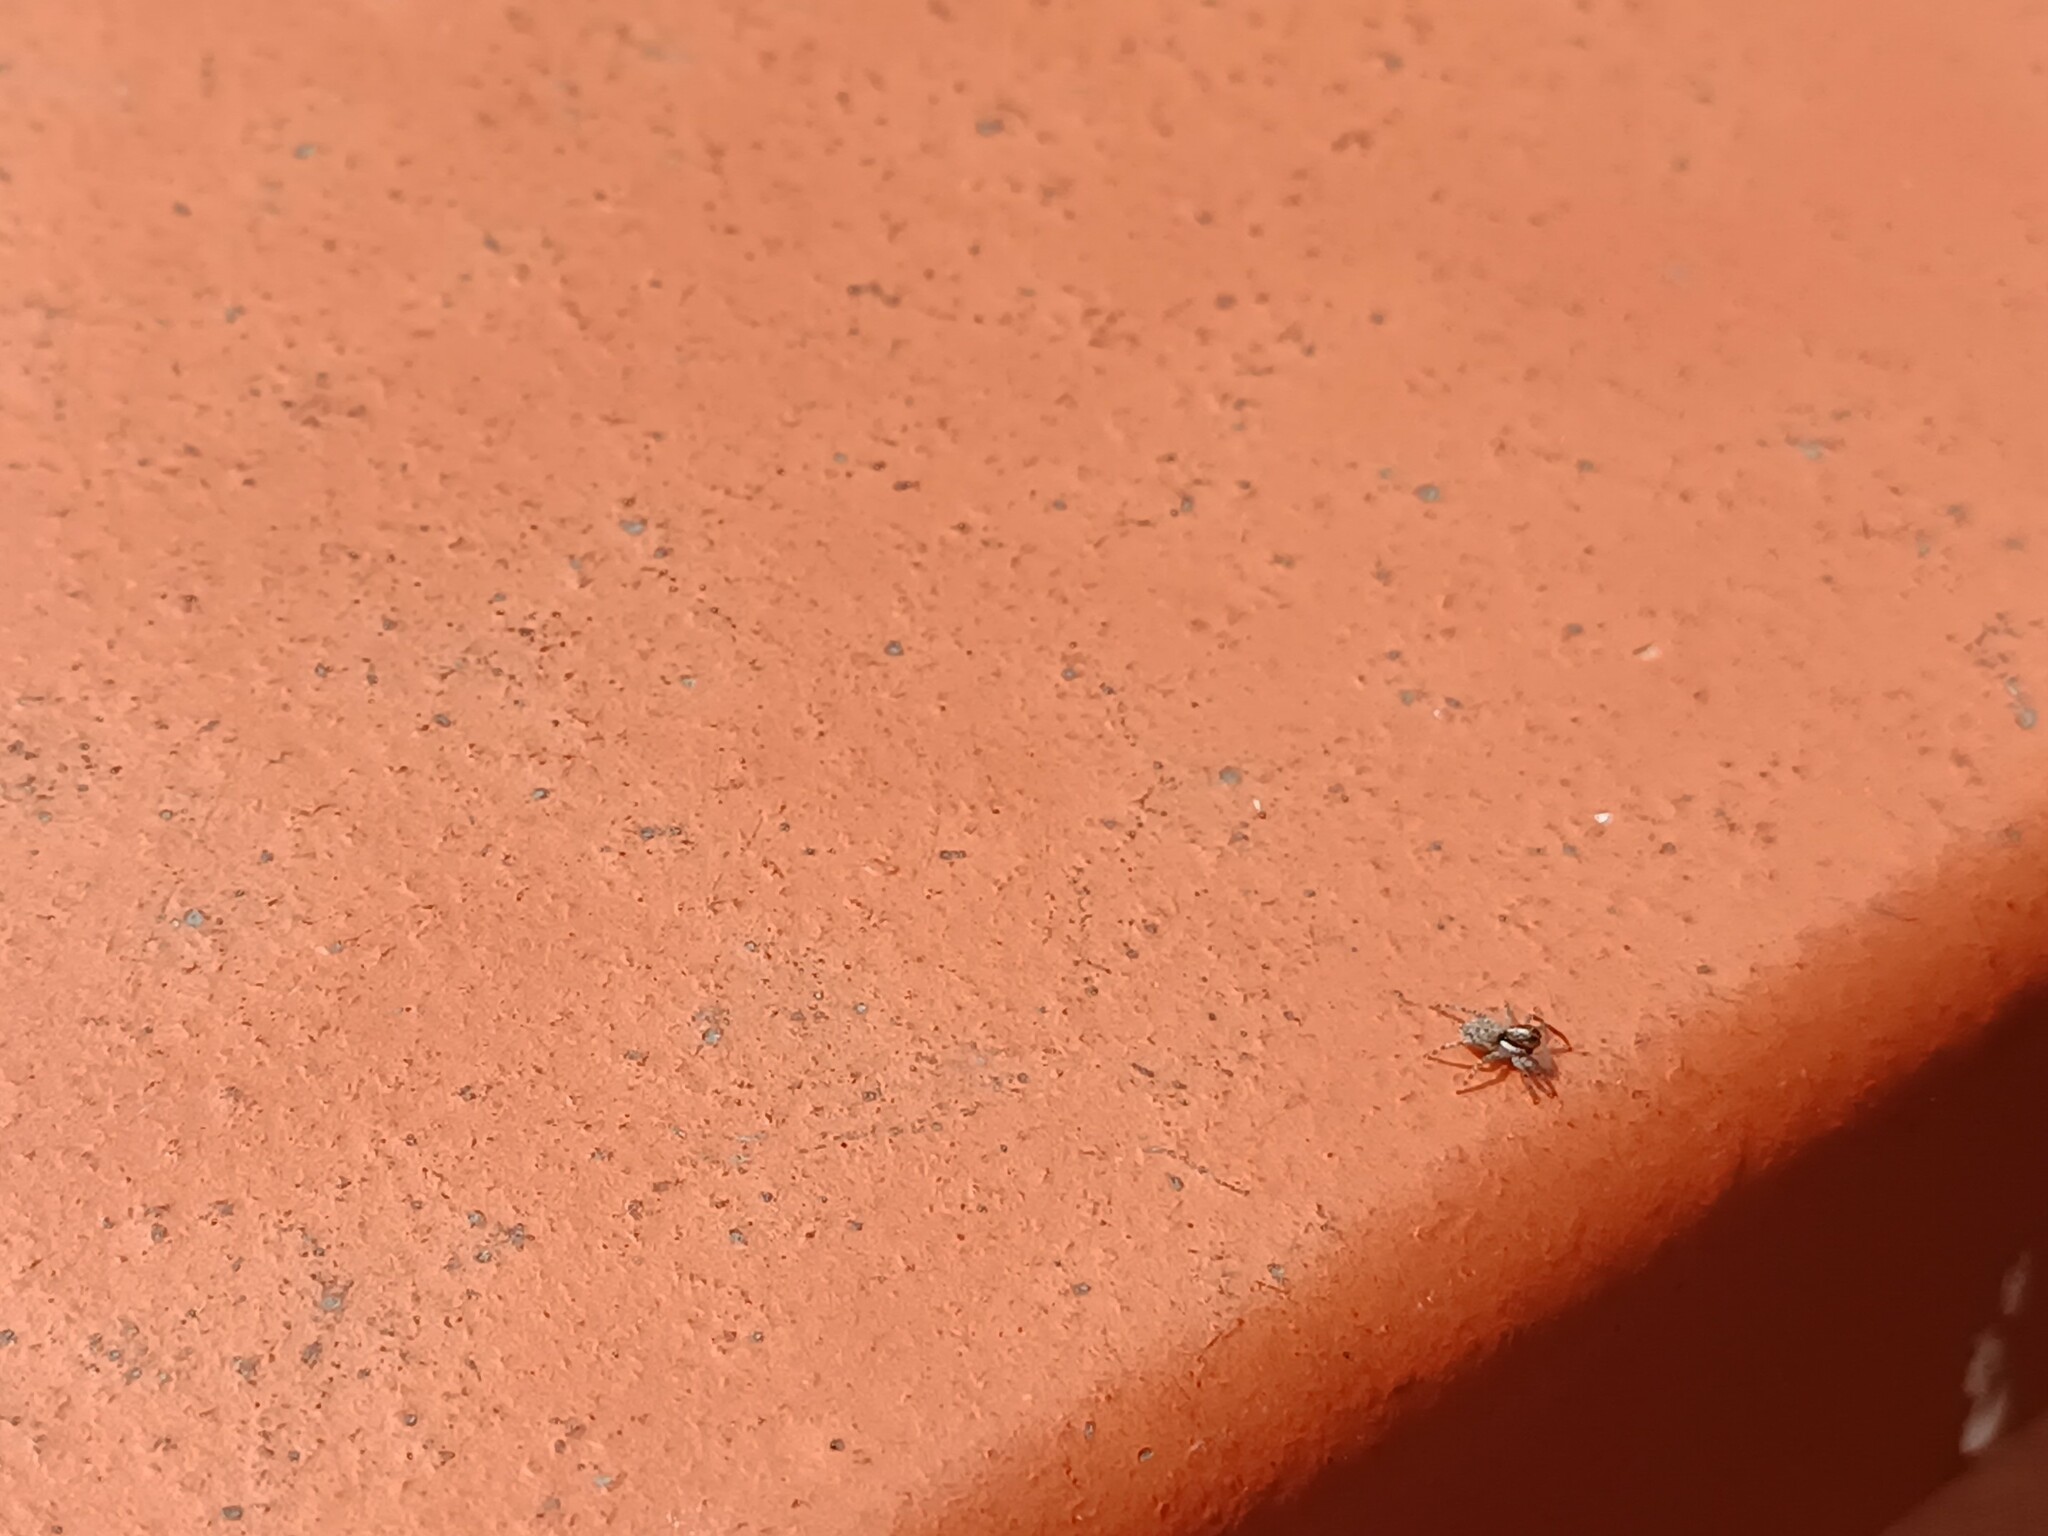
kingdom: Animalia
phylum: Arthropoda
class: Arachnida
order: Araneae
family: Salticidae
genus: Menemerus
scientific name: Menemerus semilimbatus
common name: Jumping spider
